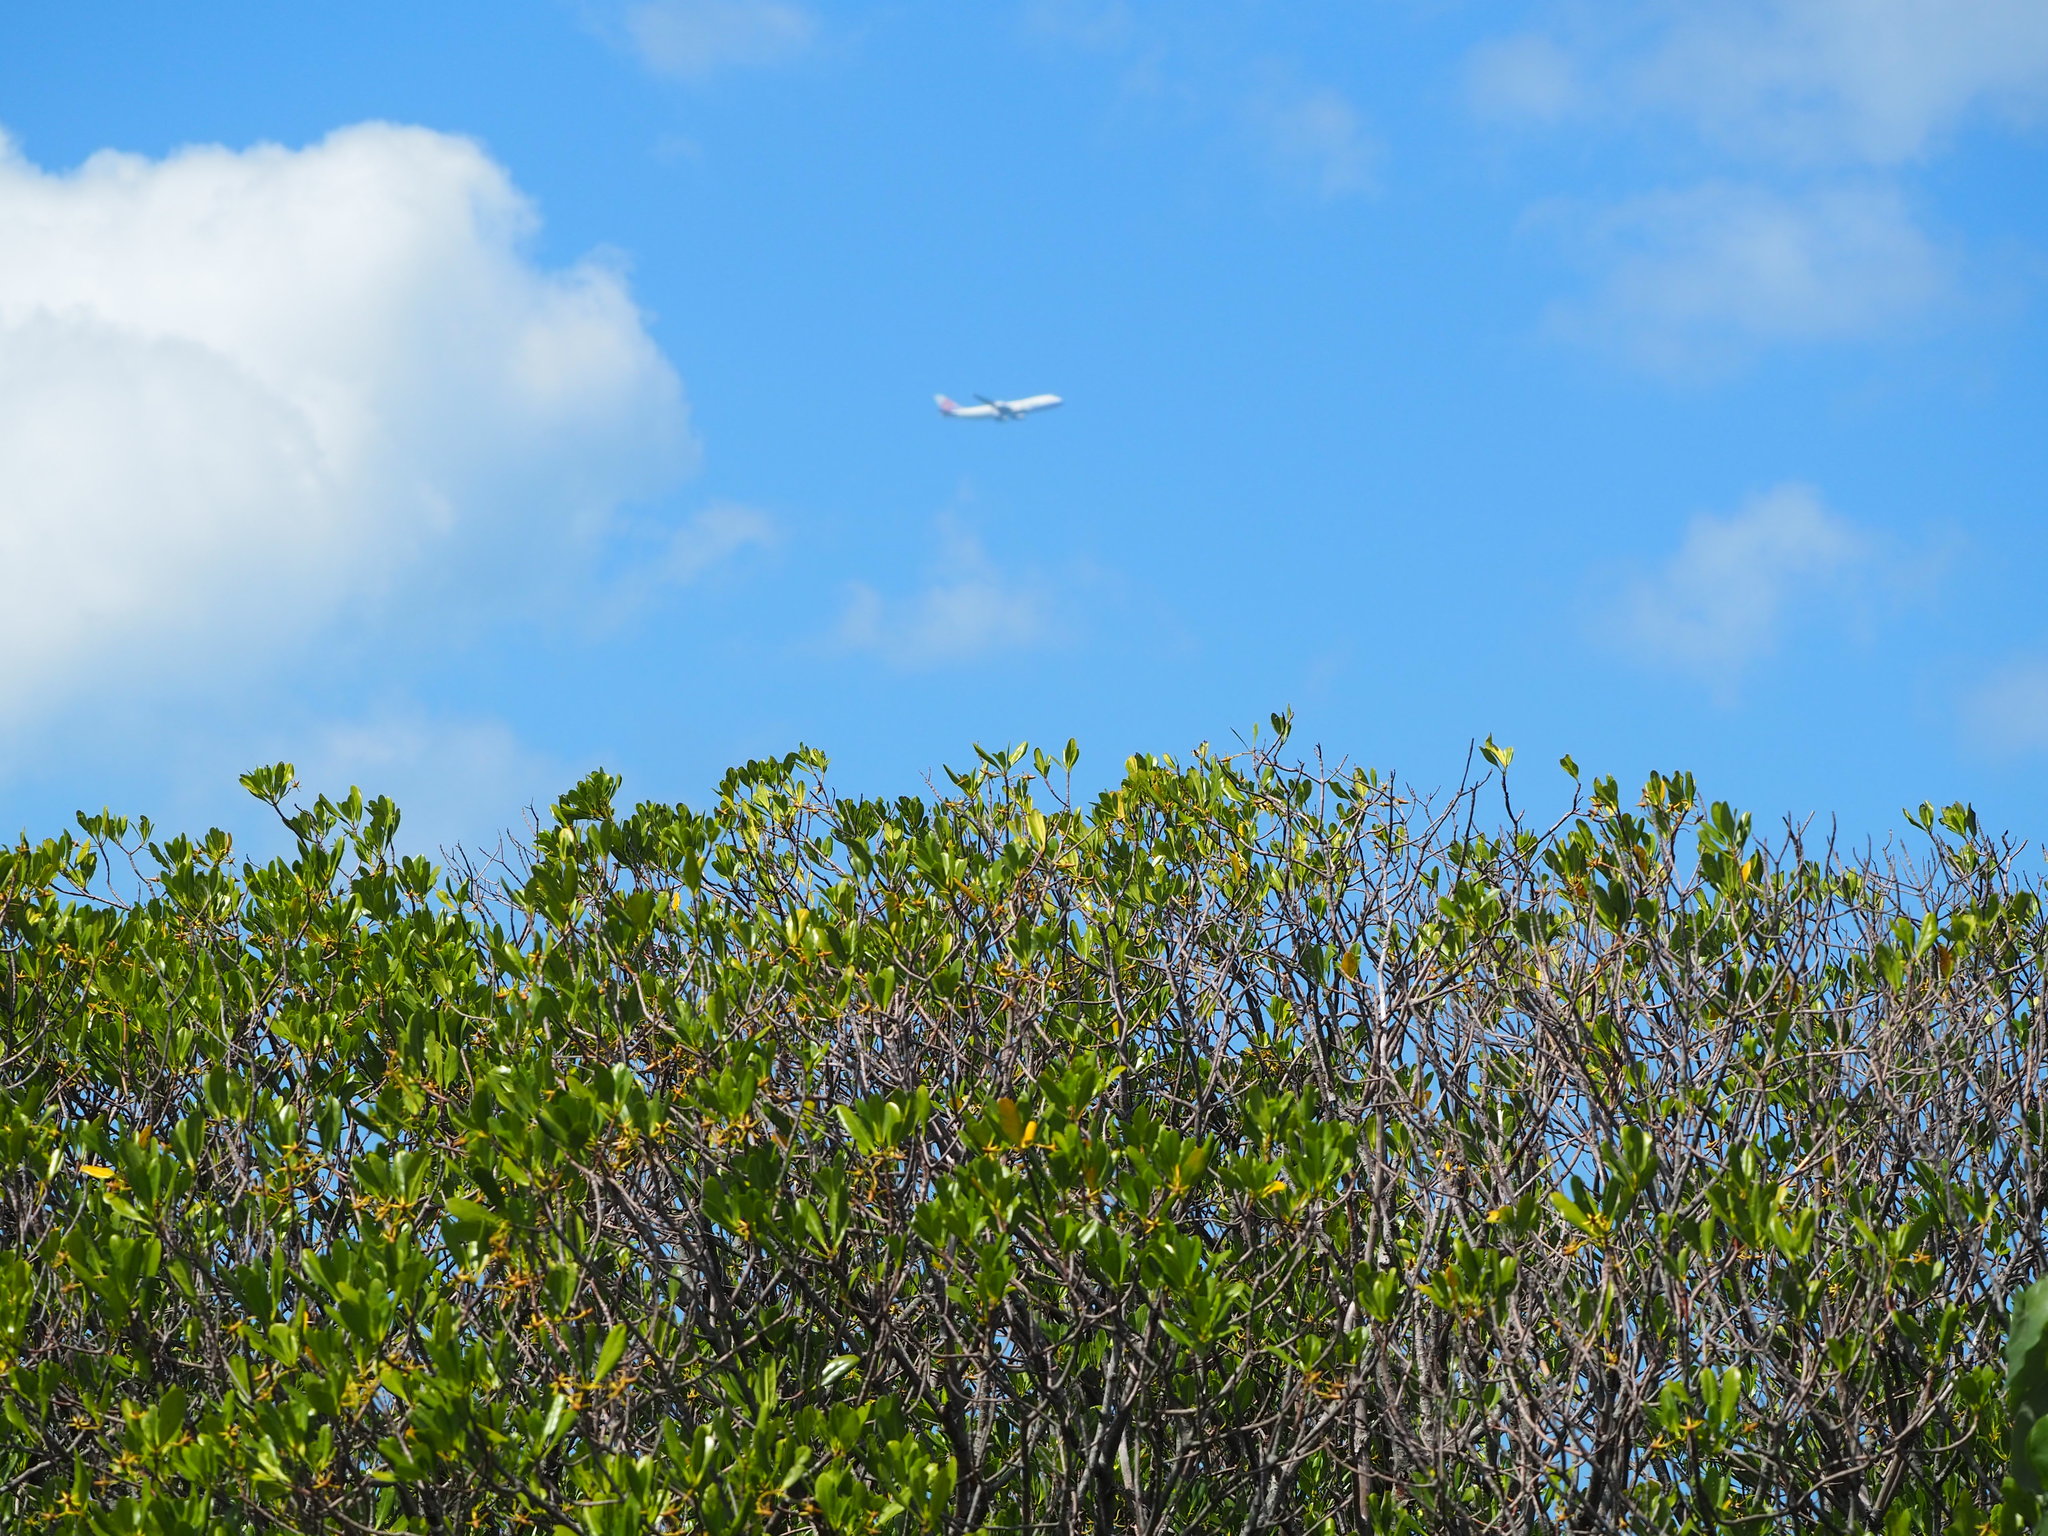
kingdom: Plantae
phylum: Tracheophyta
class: Magnoliopsida
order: Malpighiales
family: Rhizophoraceae
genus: Kandelia
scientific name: Kandelia obovata
